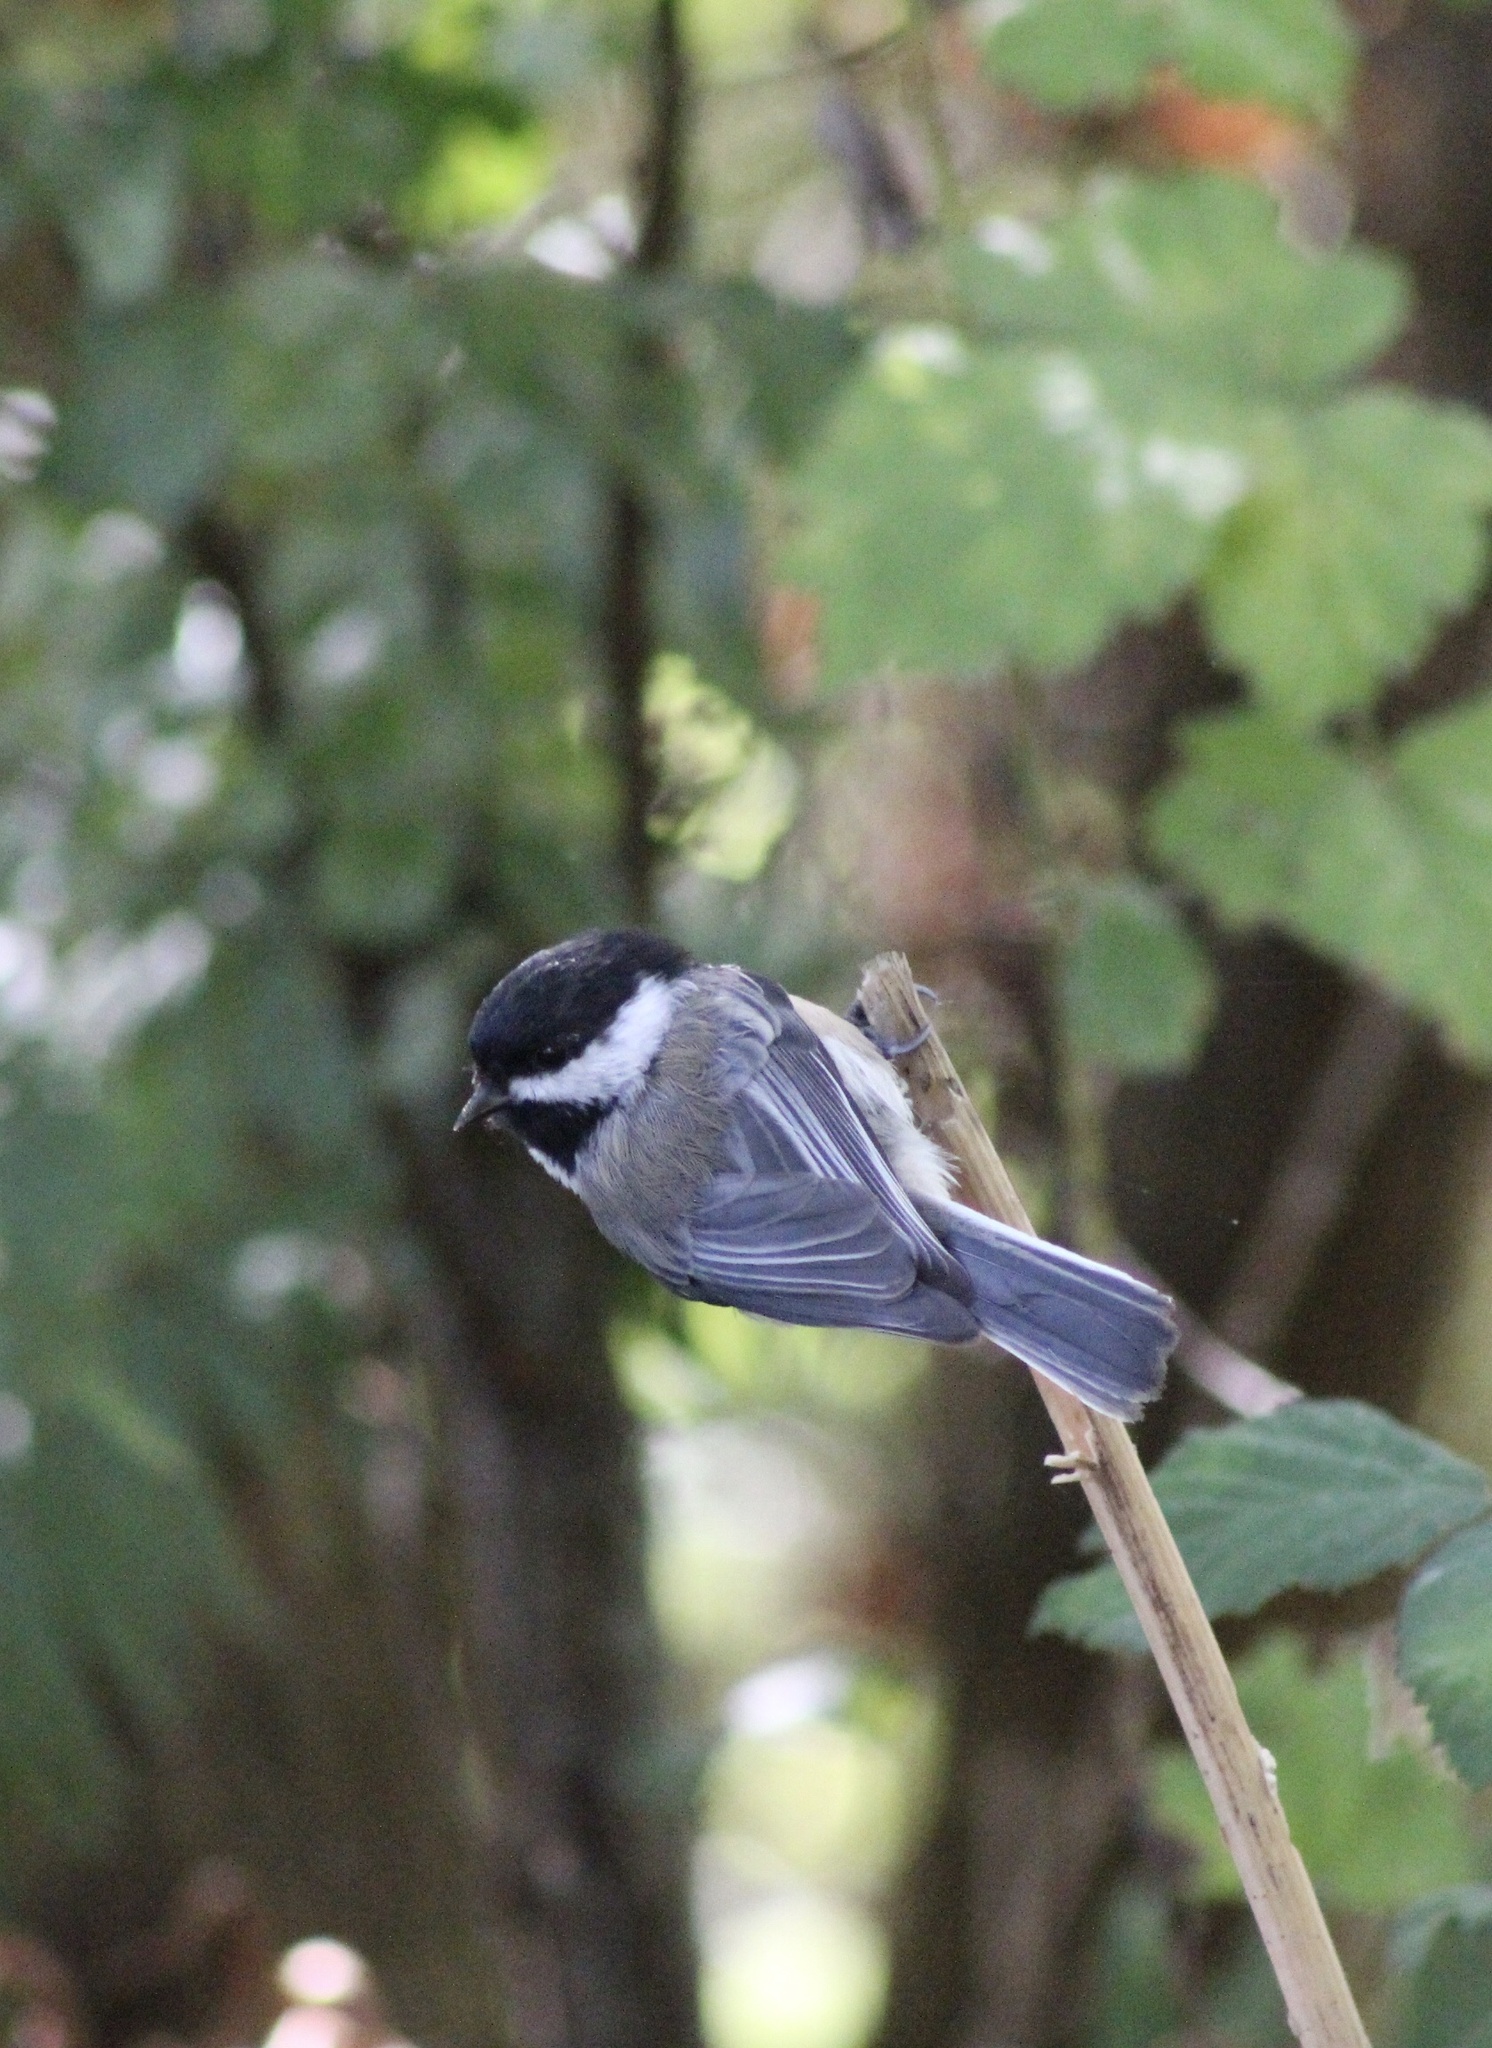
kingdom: Animalia
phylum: Chordata
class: Aves
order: Passeriformes
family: Paridae
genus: Poecile
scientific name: Poecile atricapillus
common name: Black-capped chickadee
